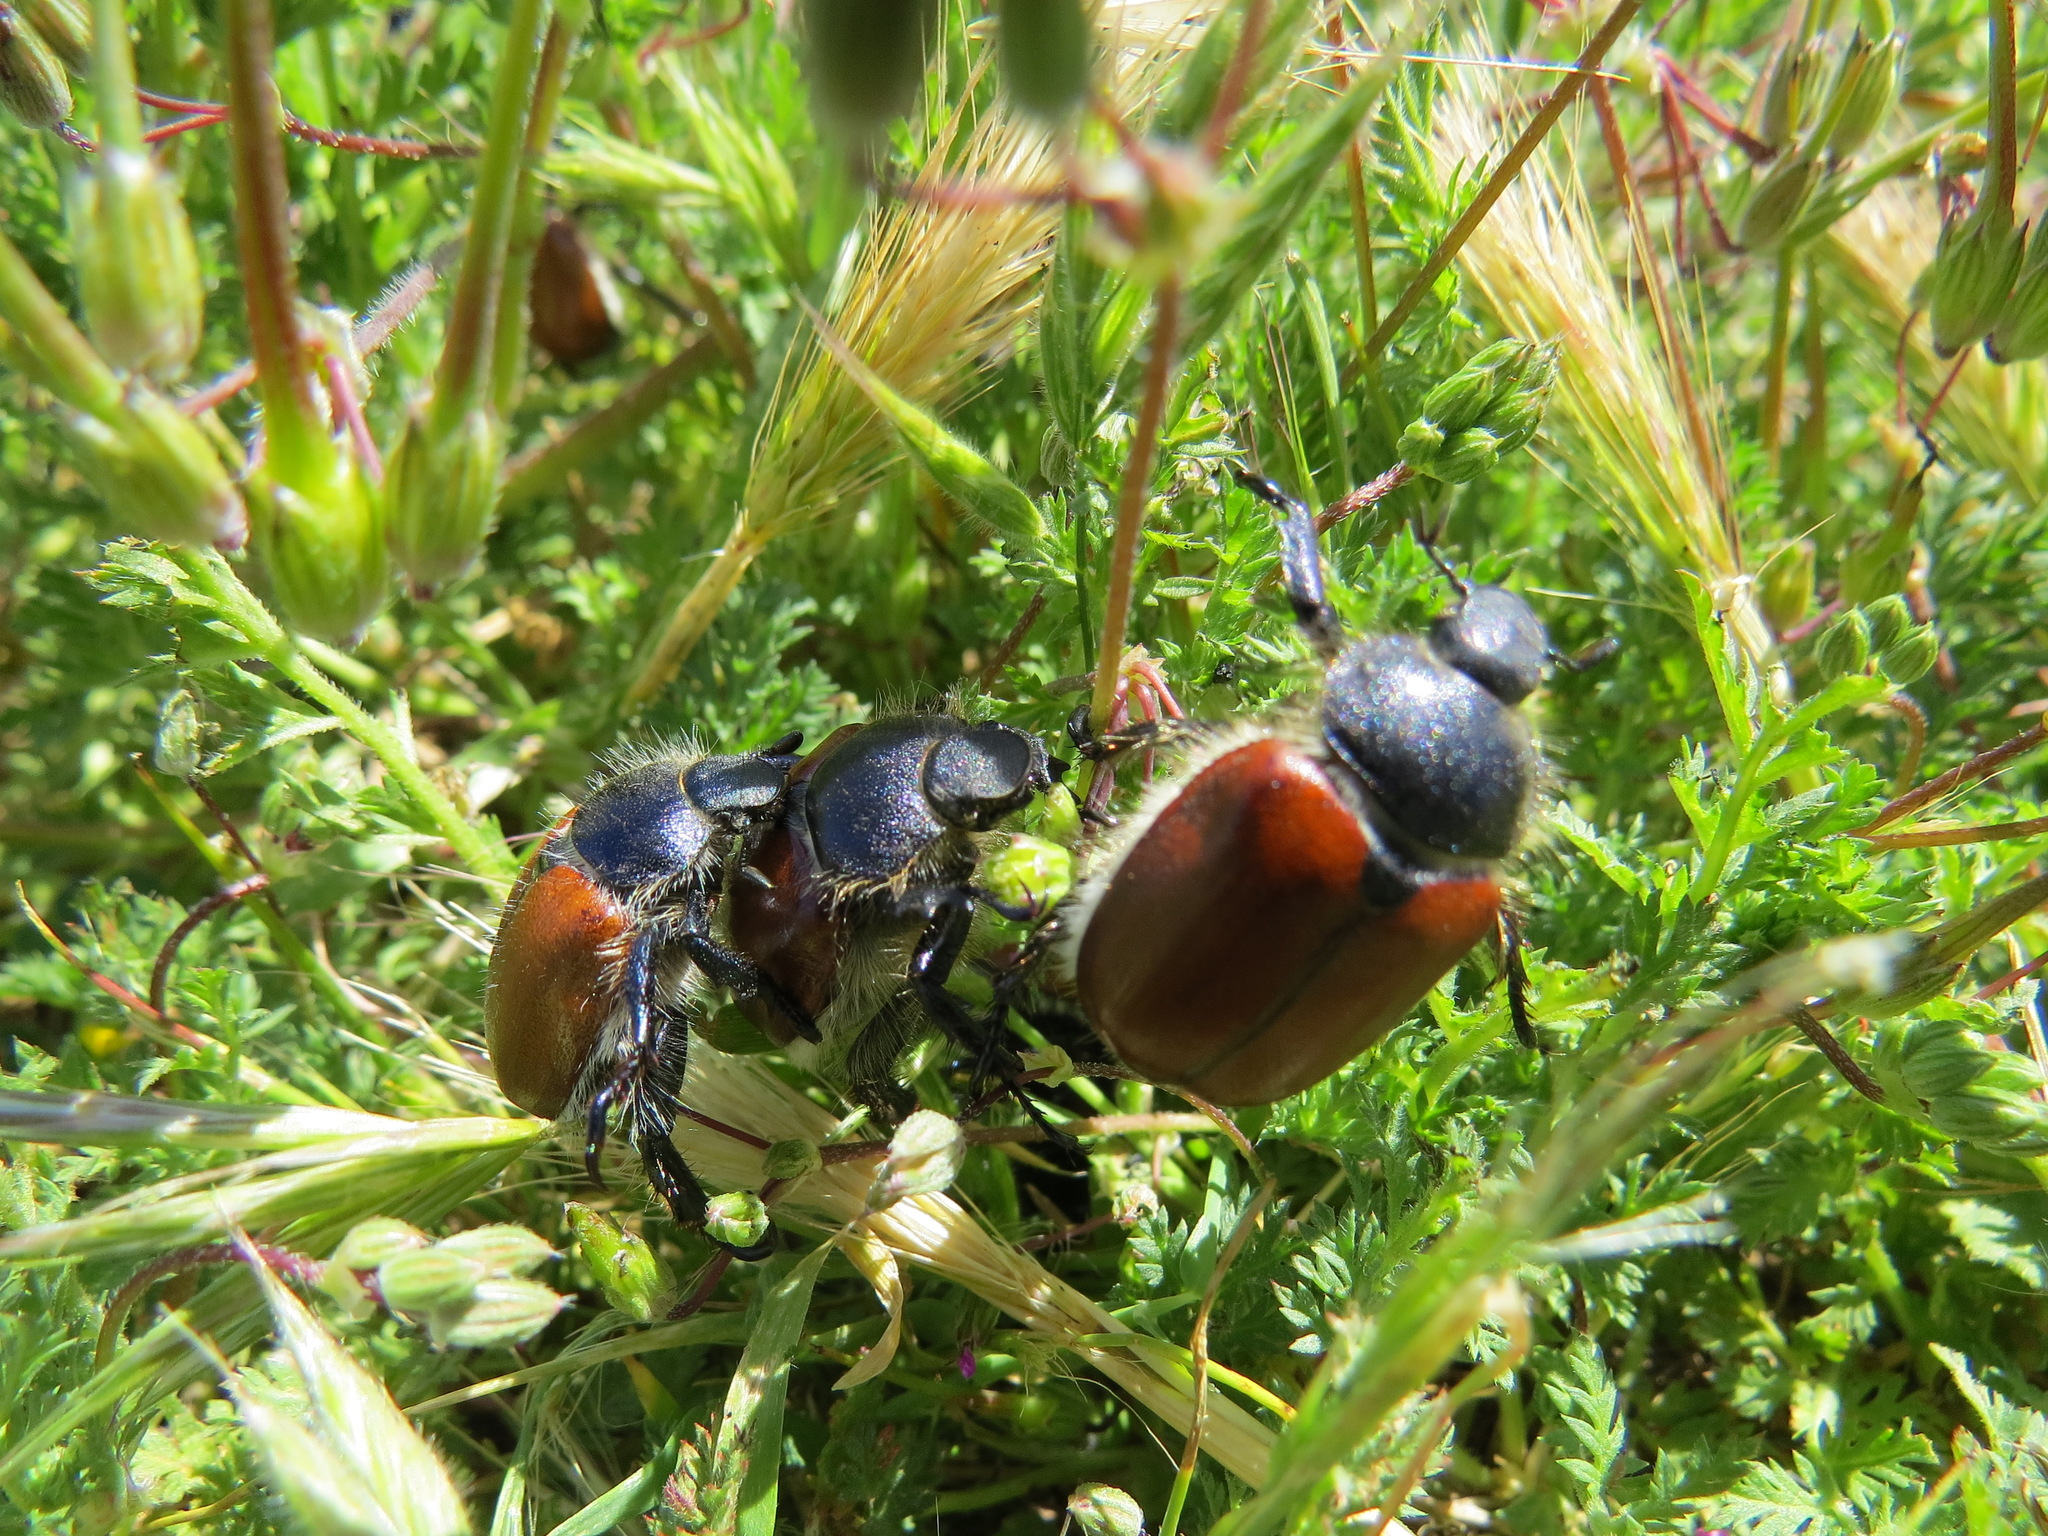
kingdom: Animalia
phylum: Arthropoda
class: Insecta
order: Coleoptera
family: Scarabaeidae
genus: Paracotalpa
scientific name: Paracotalpa ursina
